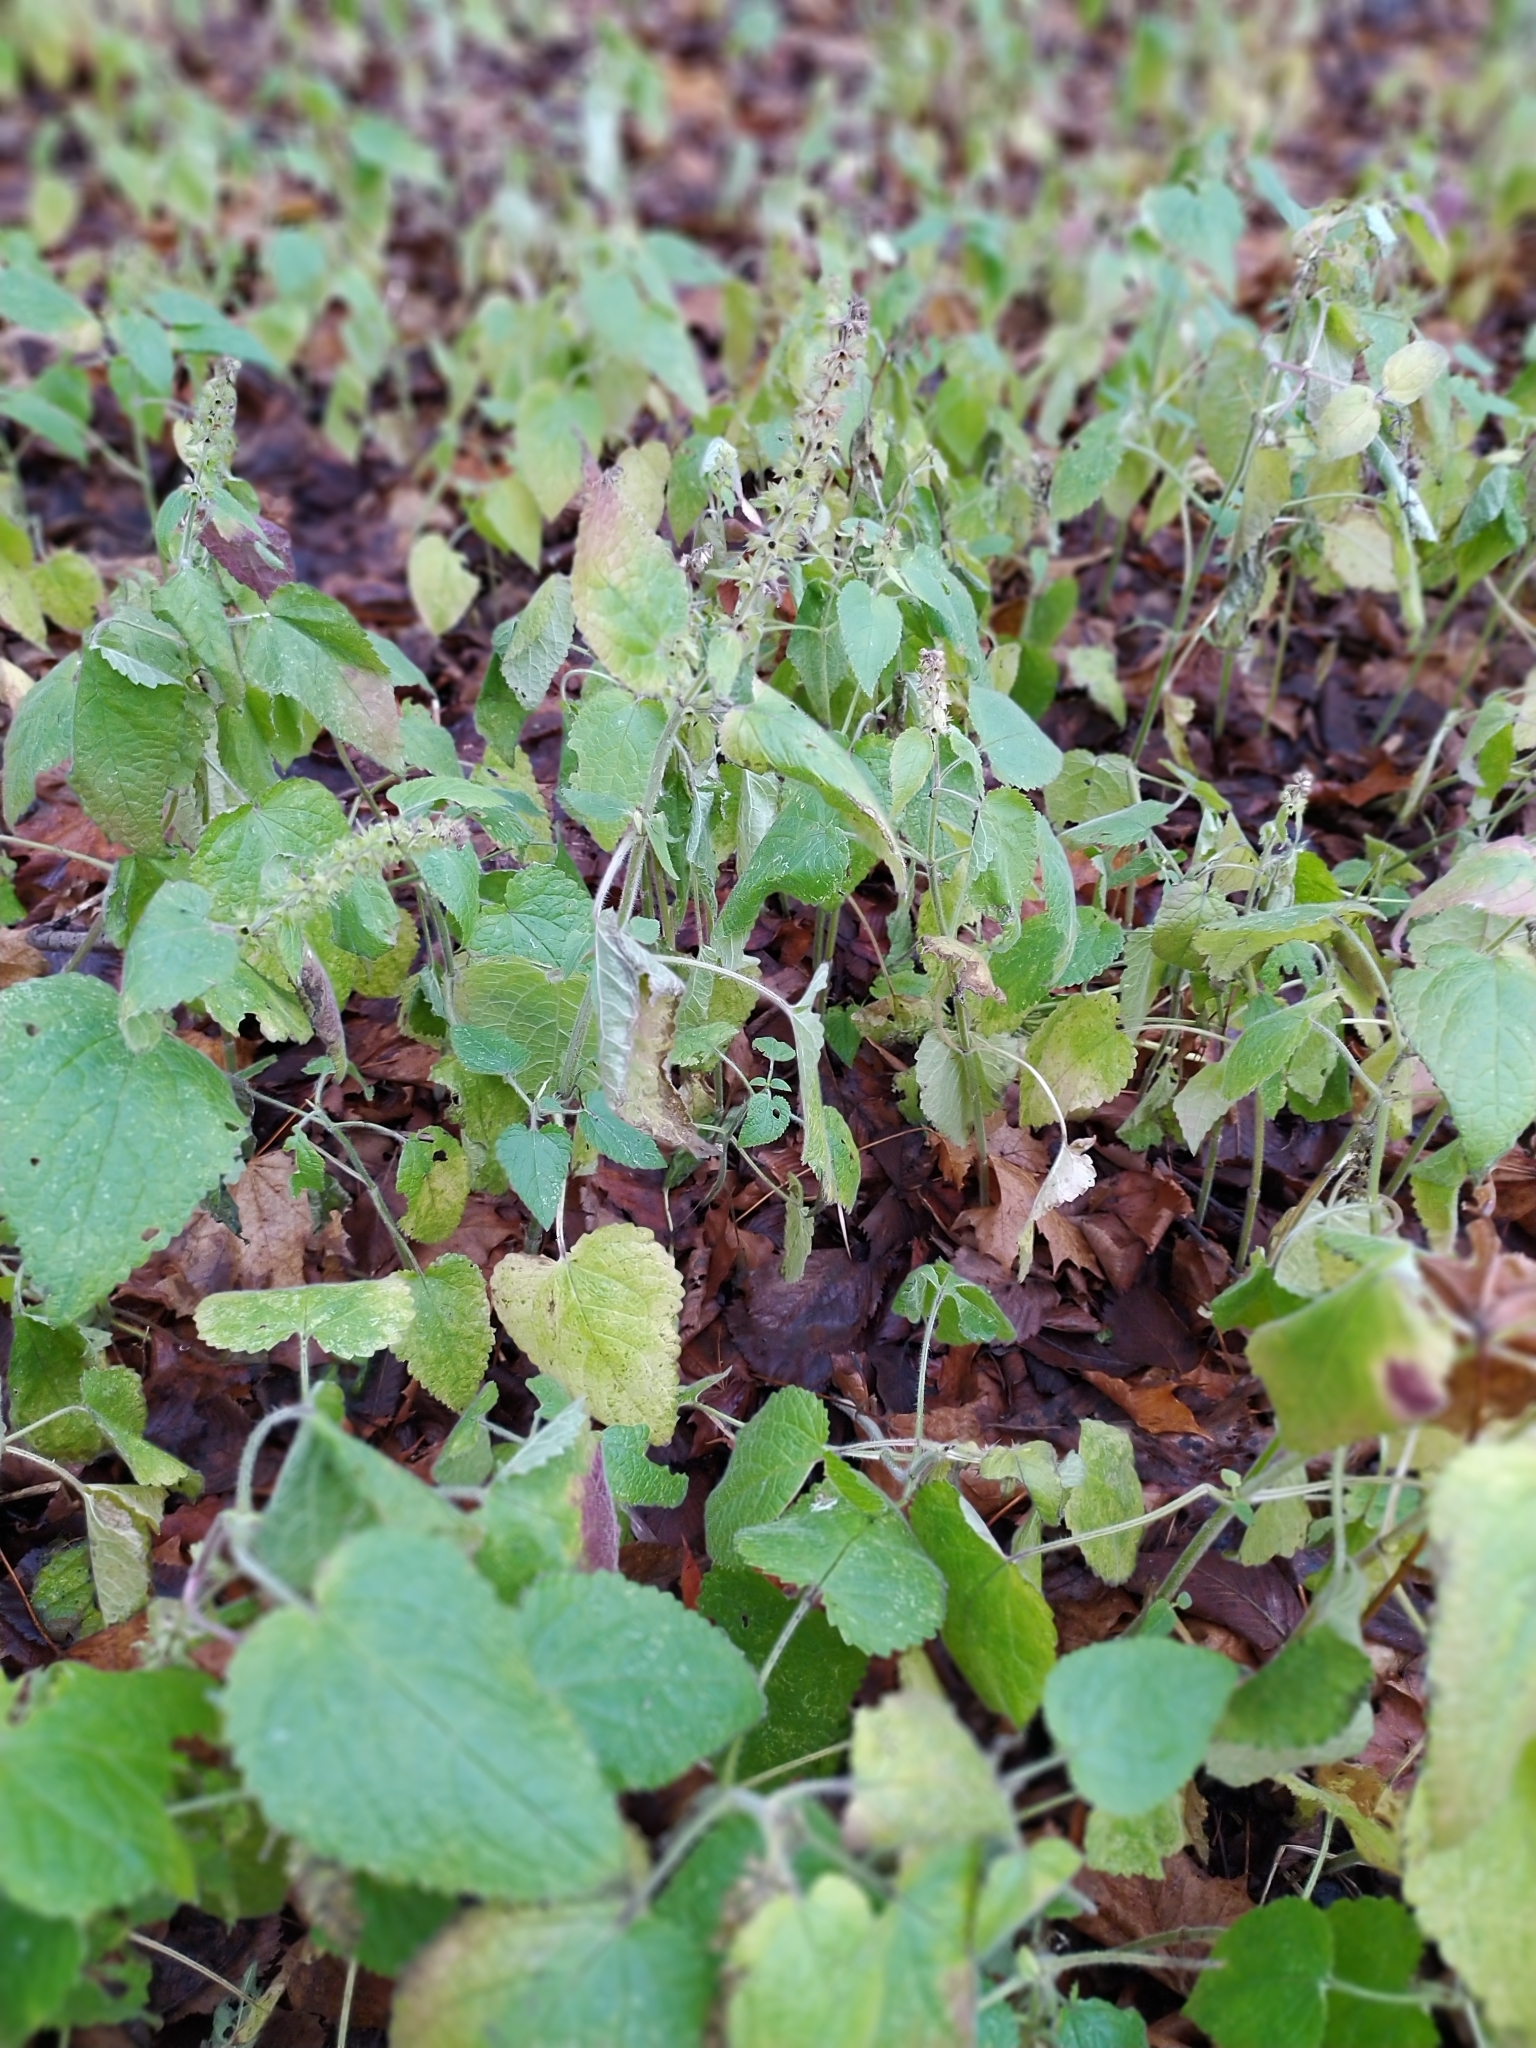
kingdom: Plantae
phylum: Tracheophyta
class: Magnoliopsida
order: Lamiales
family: Lamiaceae
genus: Stachys
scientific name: Stachys sylvatica
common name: Hedge woundwort
